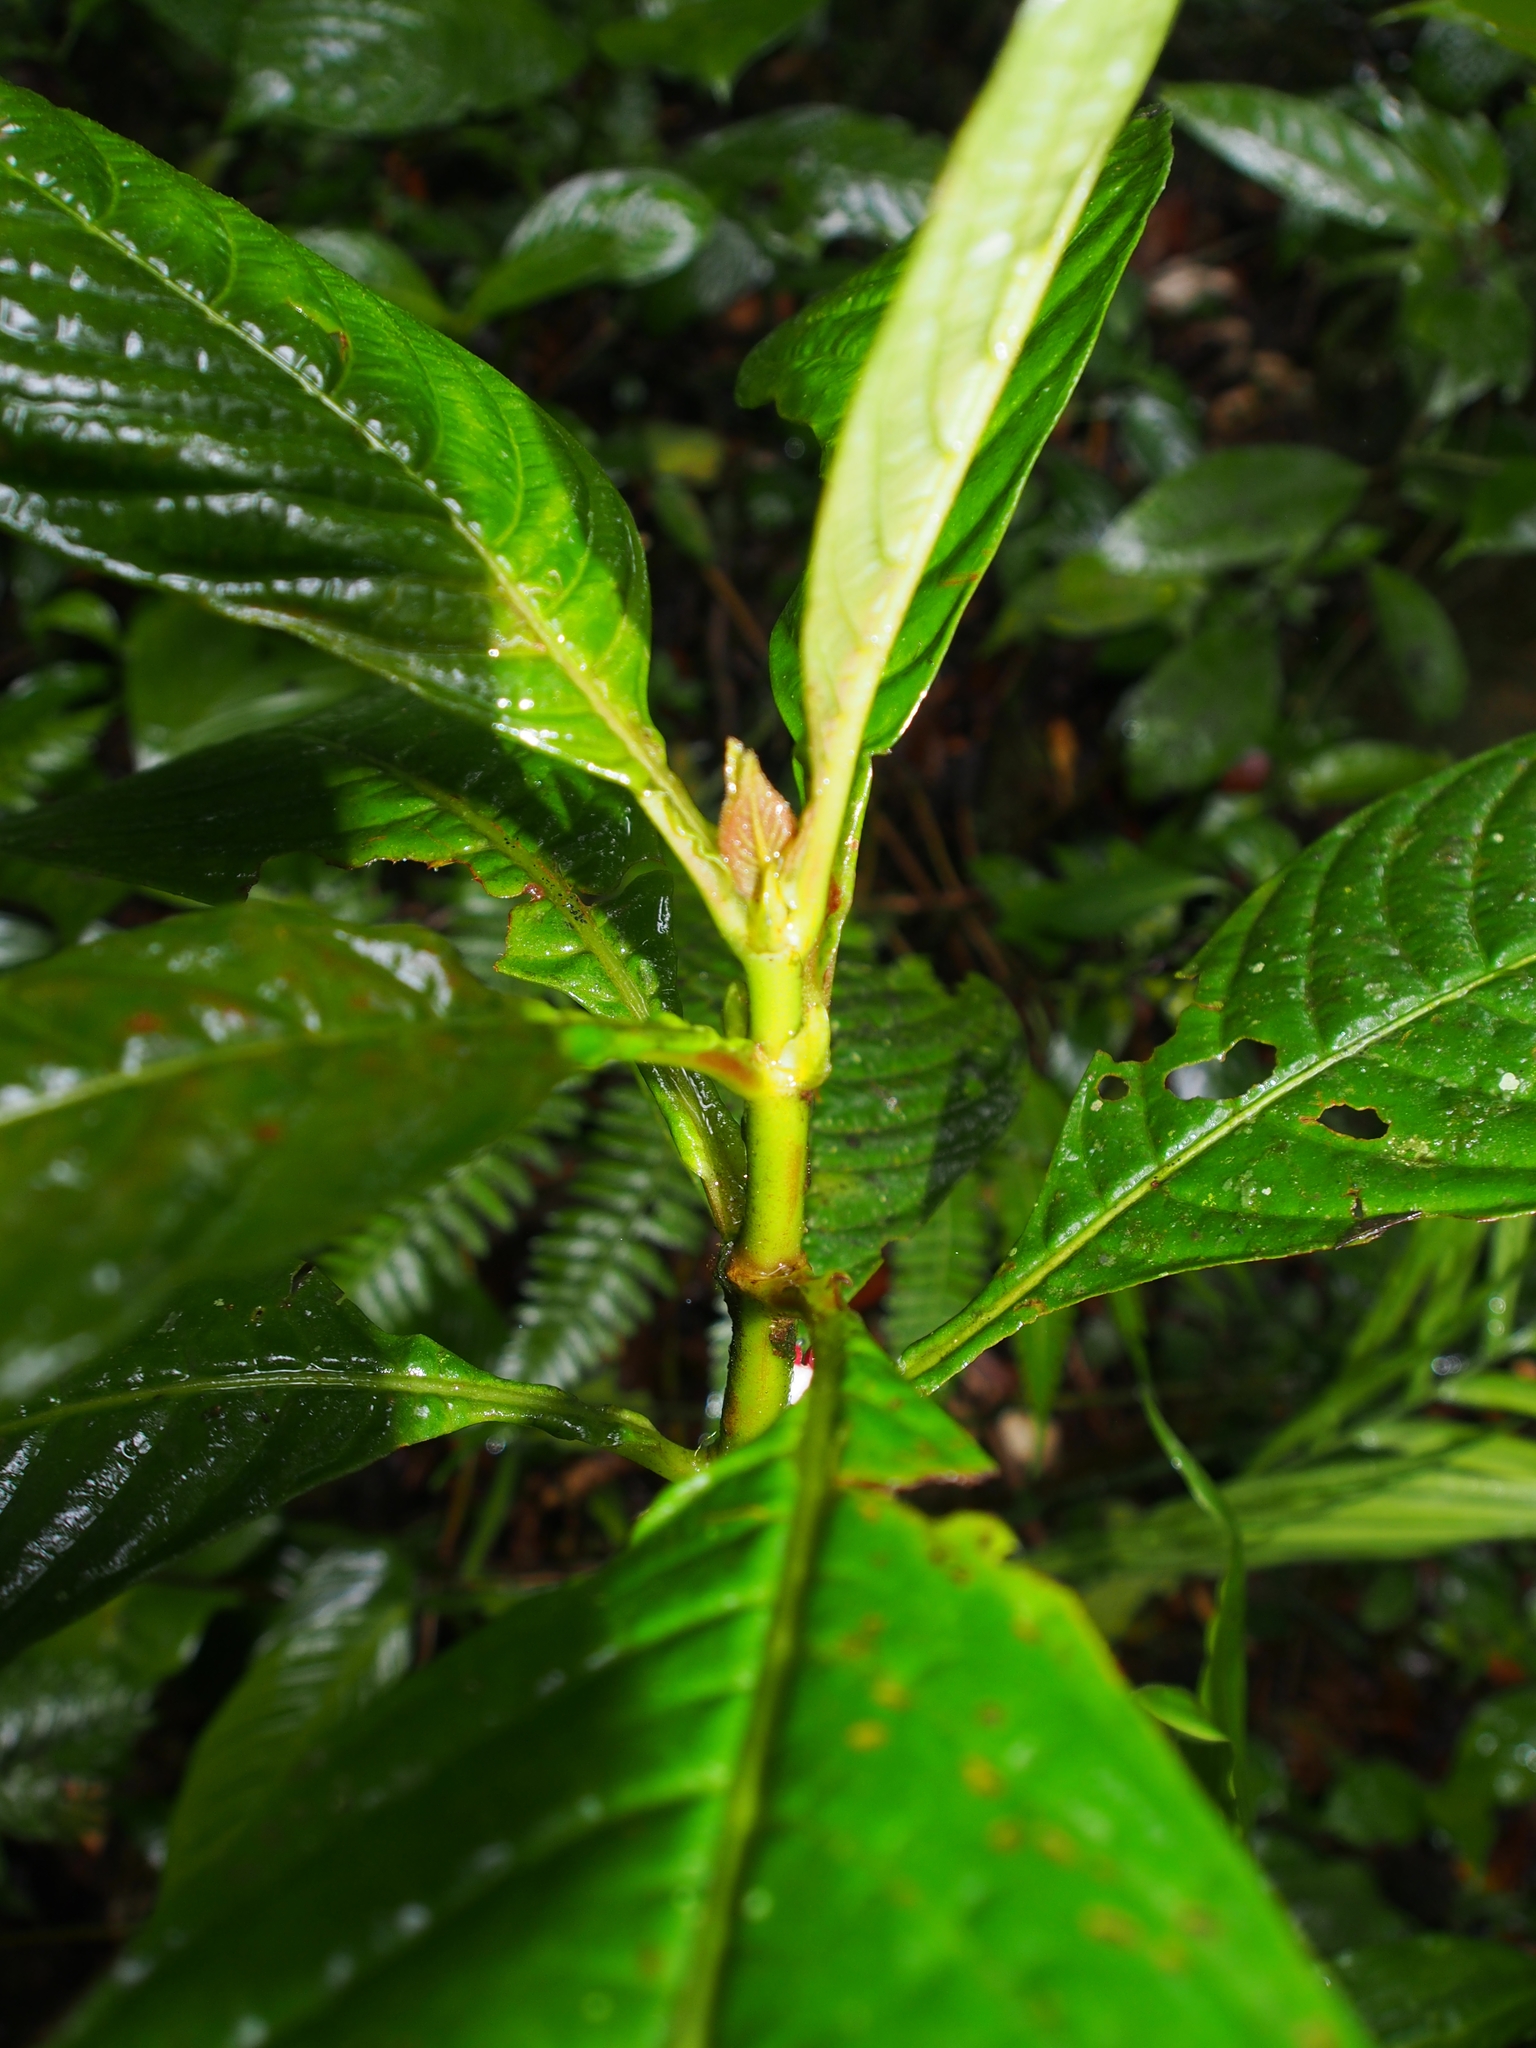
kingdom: Plantae
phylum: Tracheophyta
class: Magnoliopsida
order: Gentianales
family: Rubiaceae
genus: Hoffmannia
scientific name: Hoffmannia congesta
